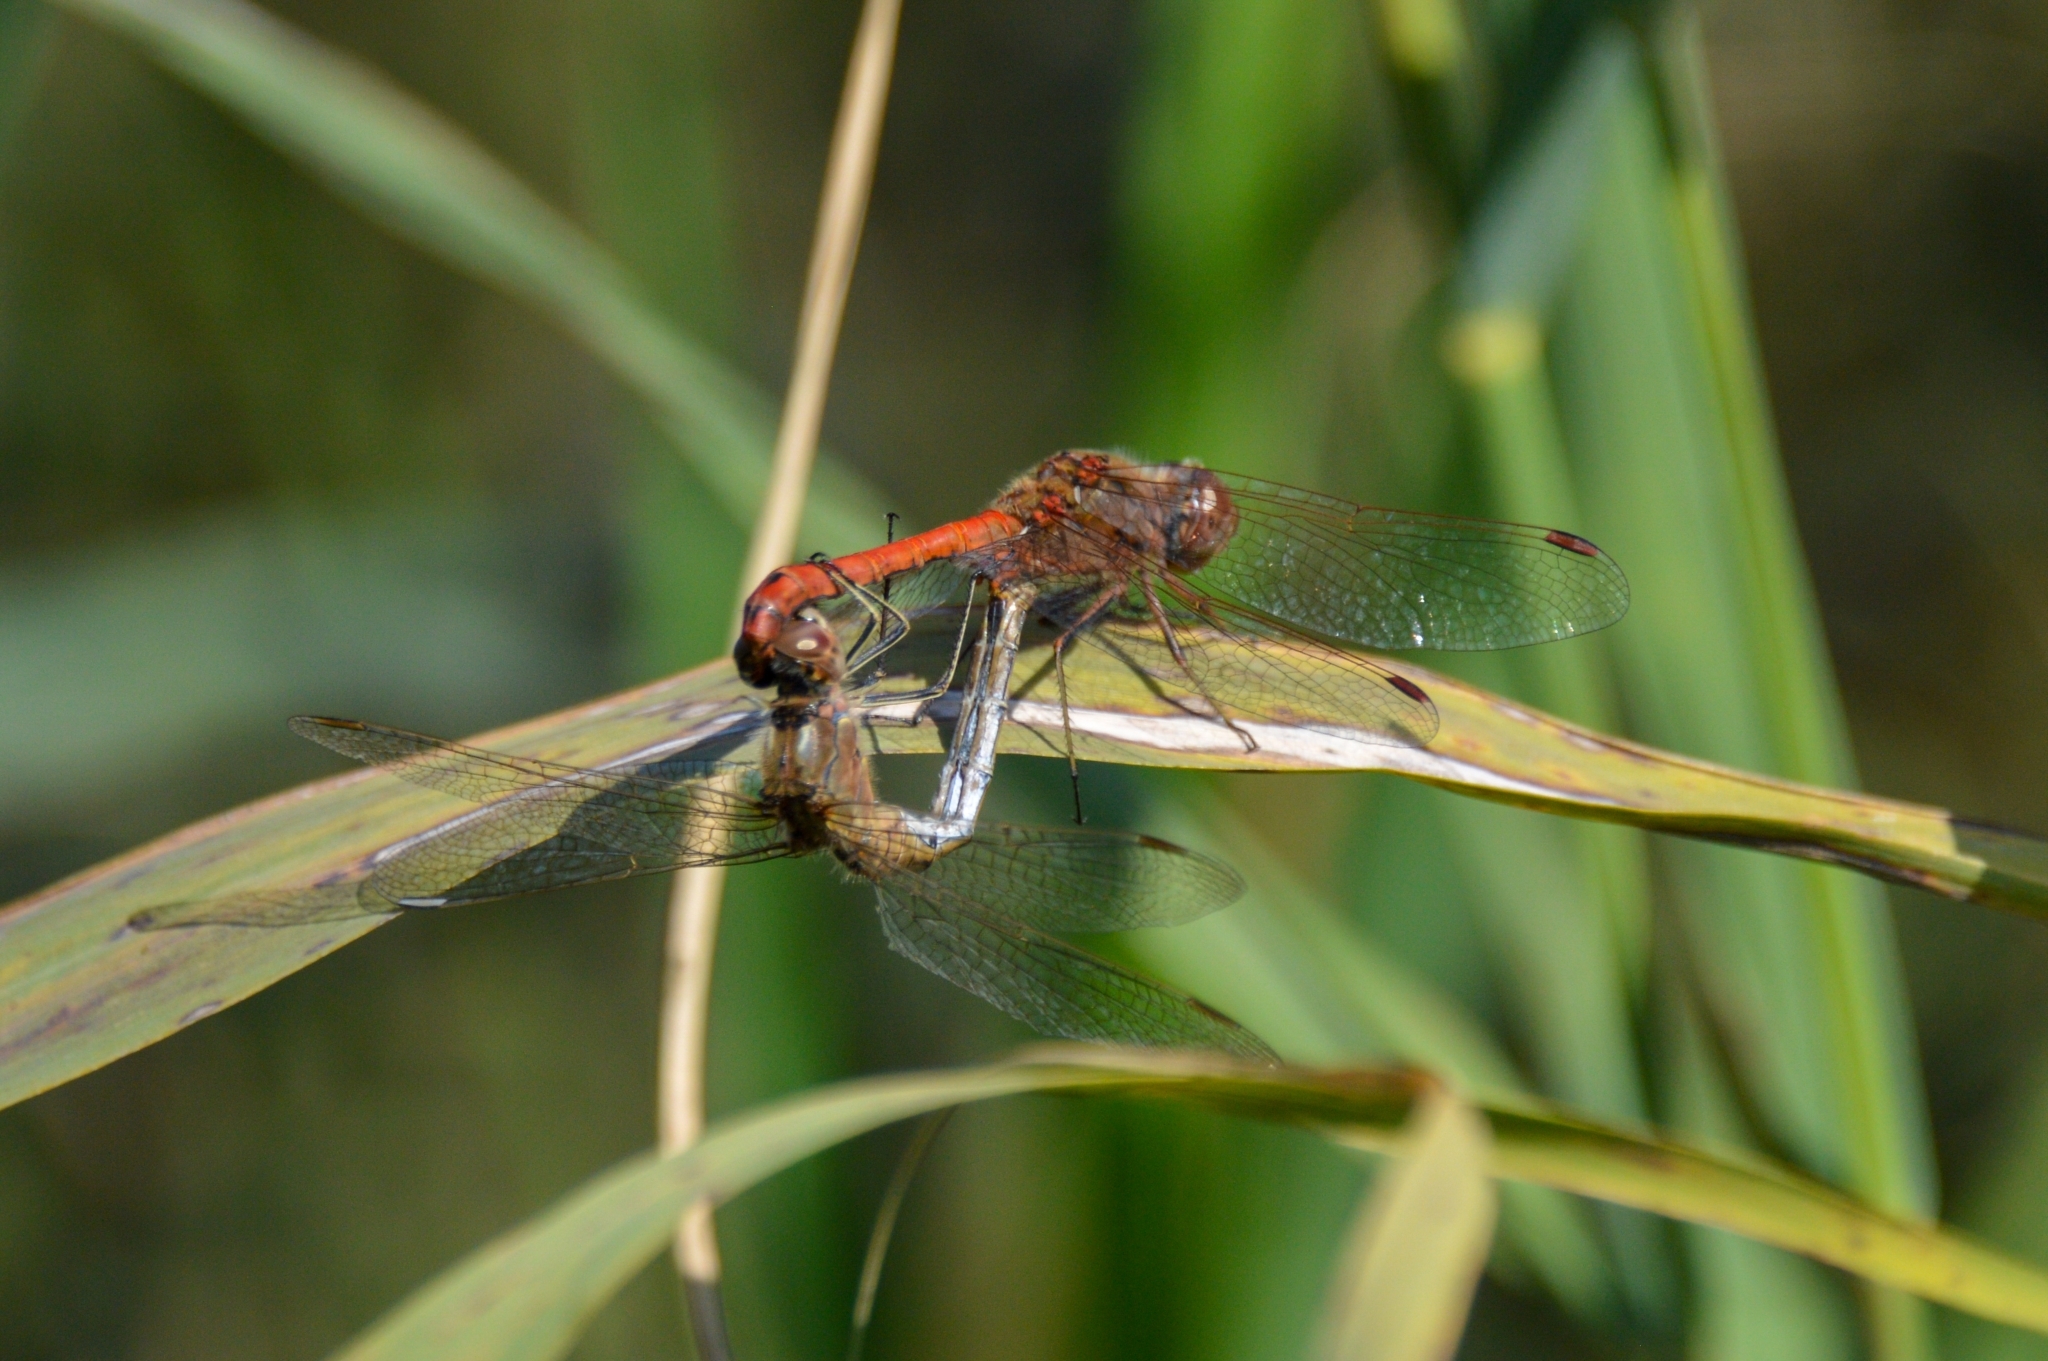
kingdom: Animalia
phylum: Arthropoda
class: Insecta
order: Odonata
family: Libellulidae
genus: Sympetrum
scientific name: Sympetrum vulgatum
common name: Vagrant darter
